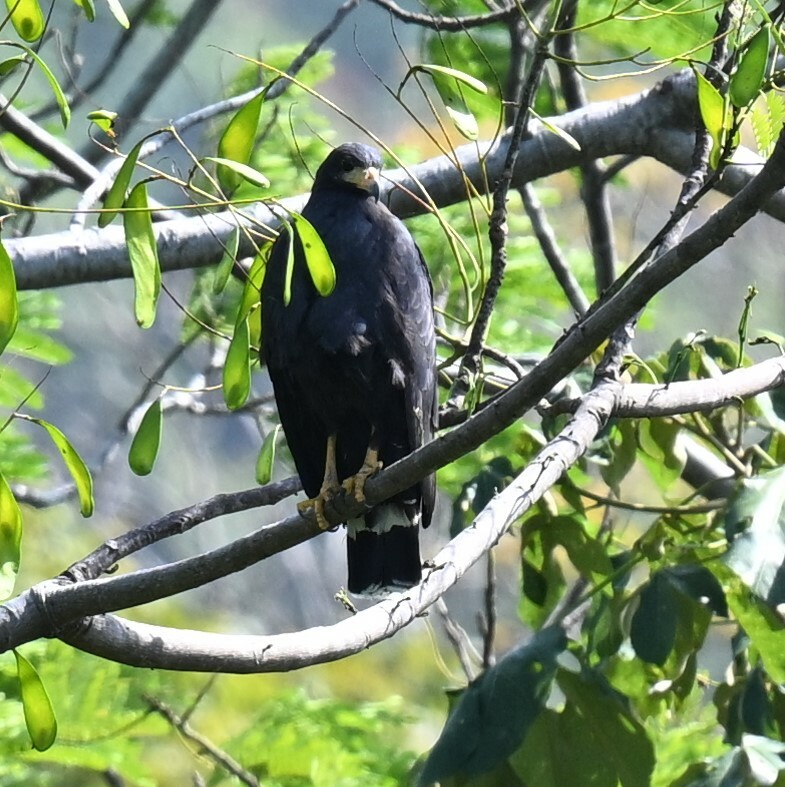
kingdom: Animalia
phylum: Chordata
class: Aves
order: Accipitriformes
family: Accipitridae
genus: Buteogallus
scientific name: Buteogallus anthracinus
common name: Common black hawk
